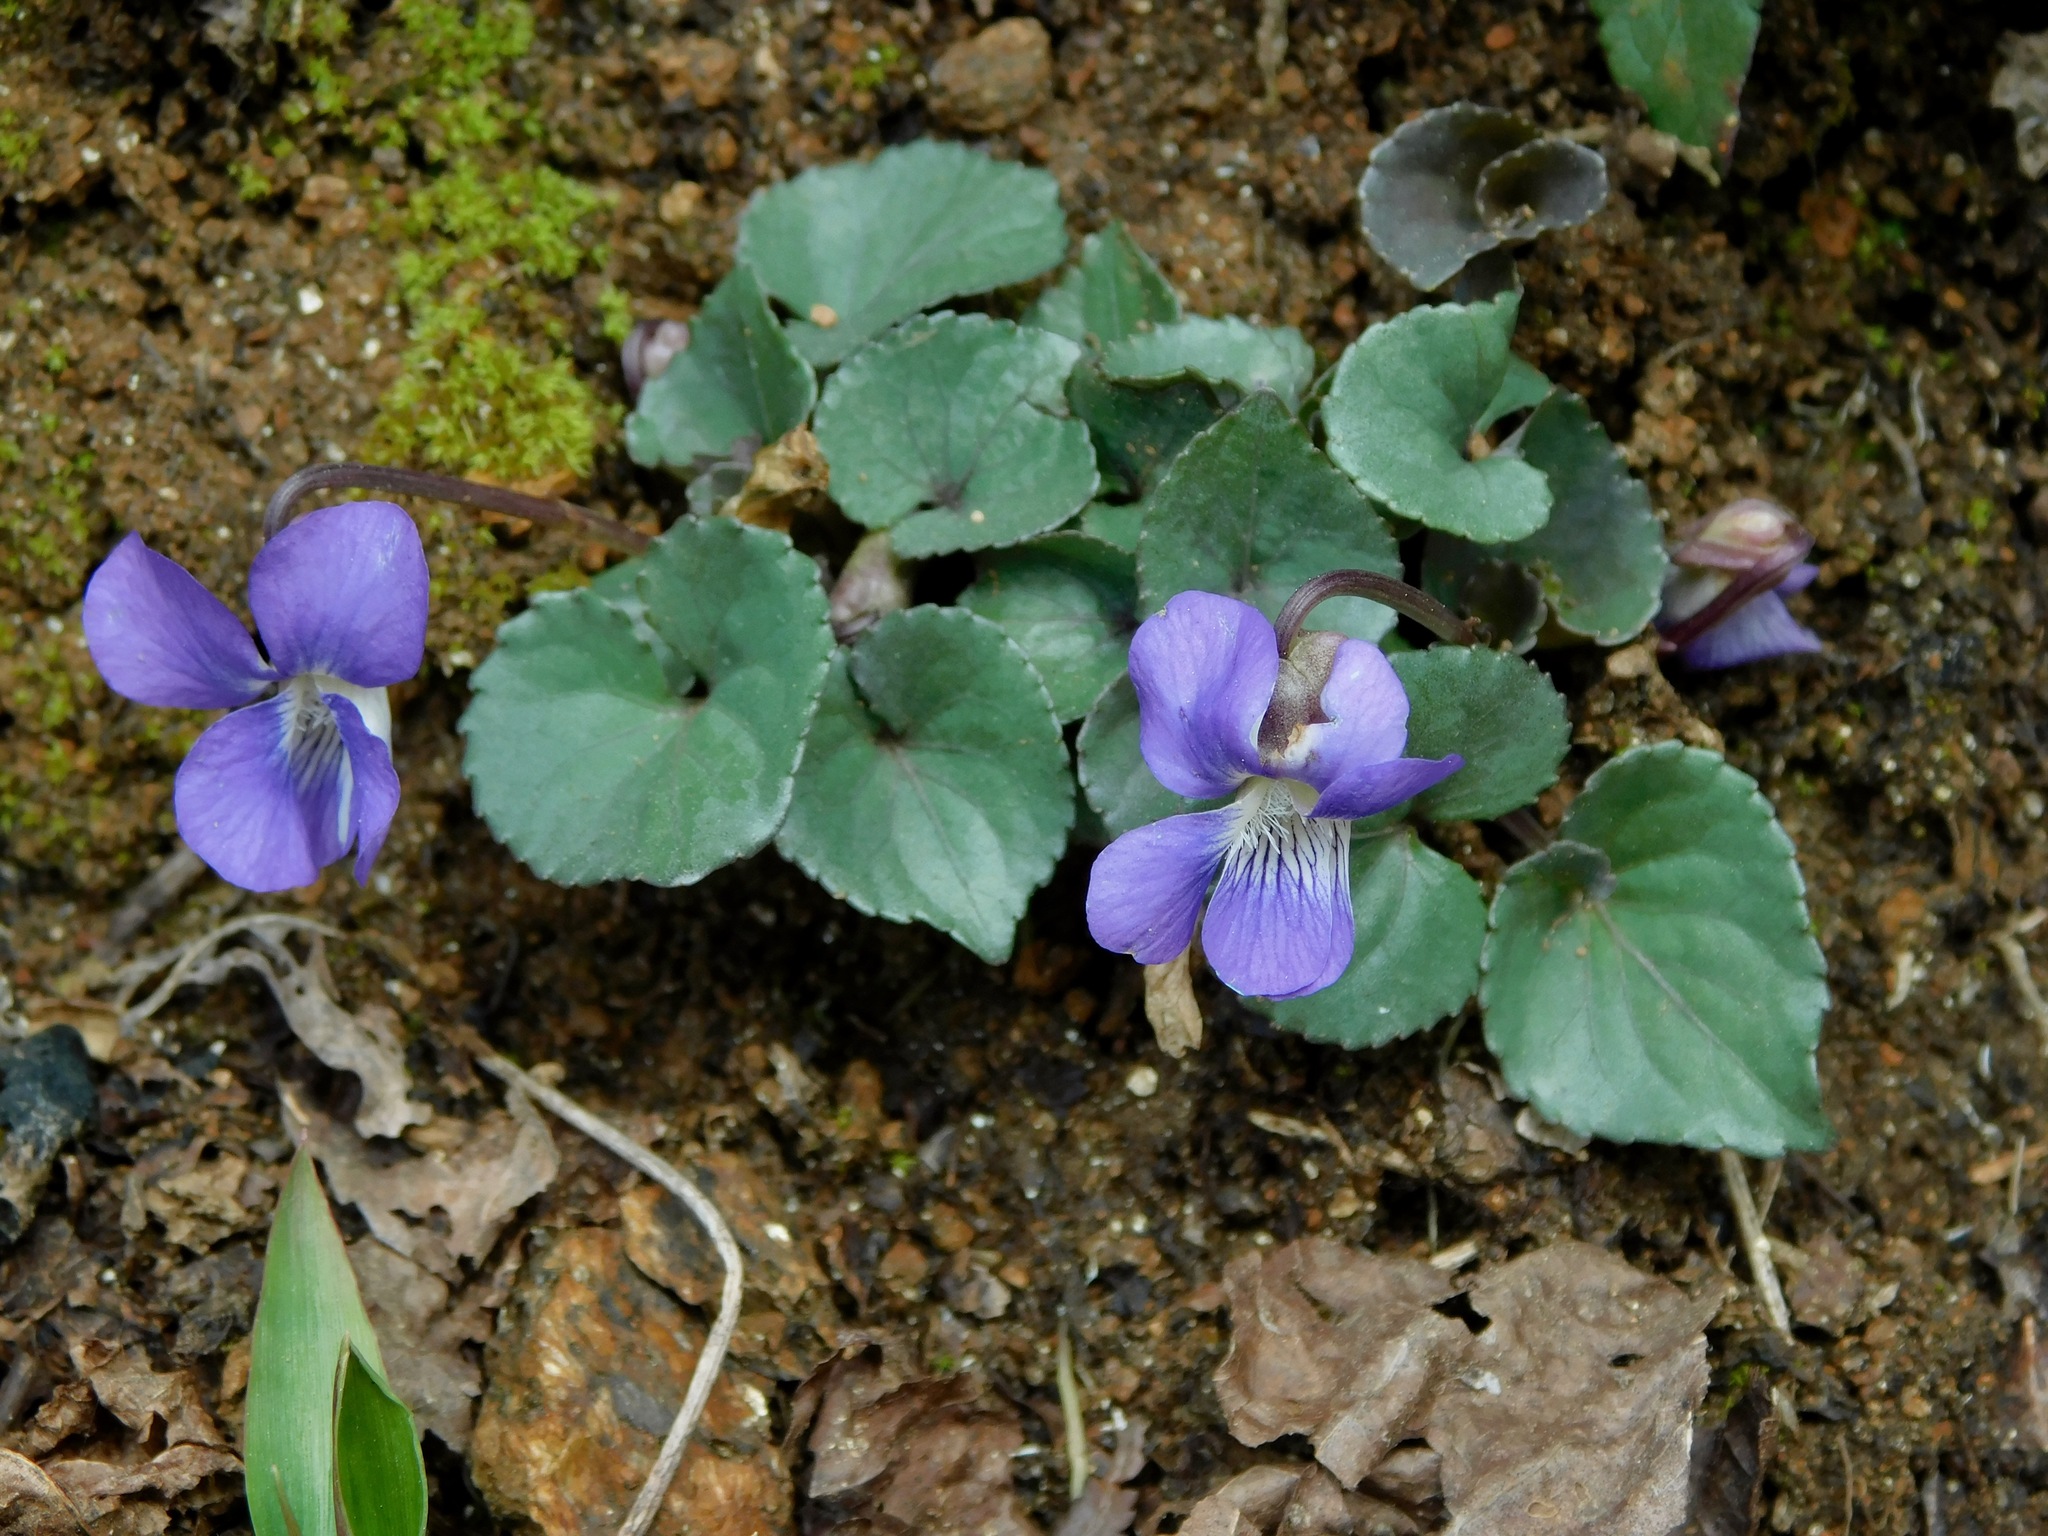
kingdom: Plantae
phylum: Tracheophyta
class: Magnoliopsida
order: Malpighiales
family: Violaceae
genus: Viola
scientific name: Viola cucullata
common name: Marsh blue violet
